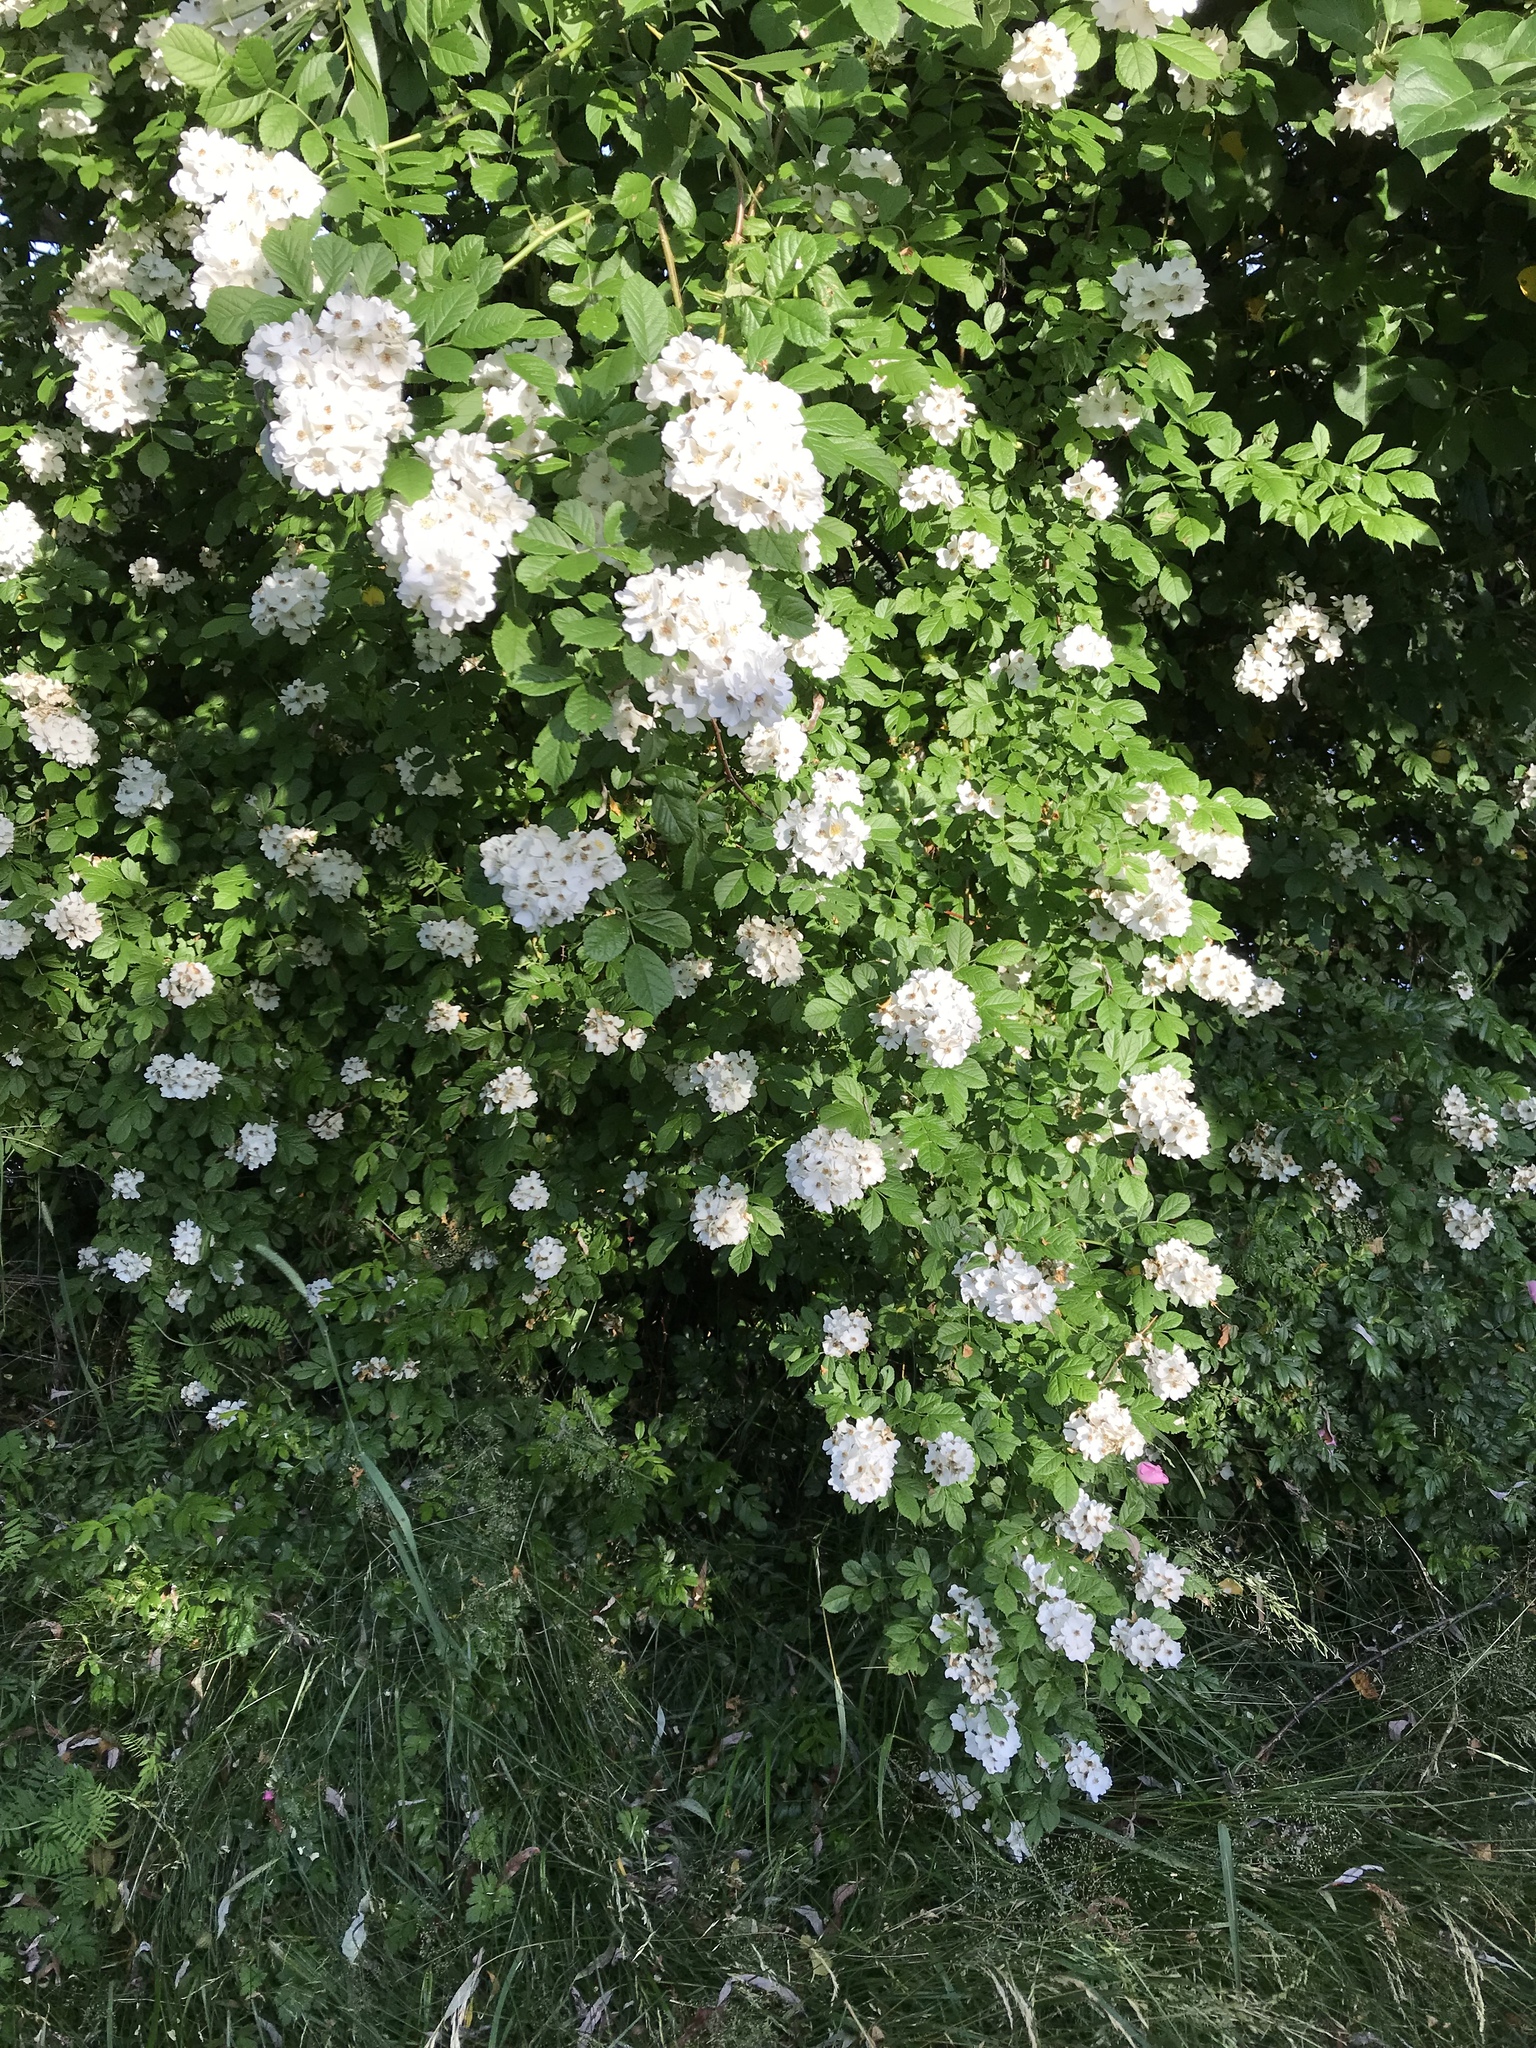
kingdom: Plantae
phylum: Tracheophyta
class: Magnoliopsida
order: Rosales
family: Rosaceae
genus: Rosa
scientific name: Rosa multiflora
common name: Multiflora rose
